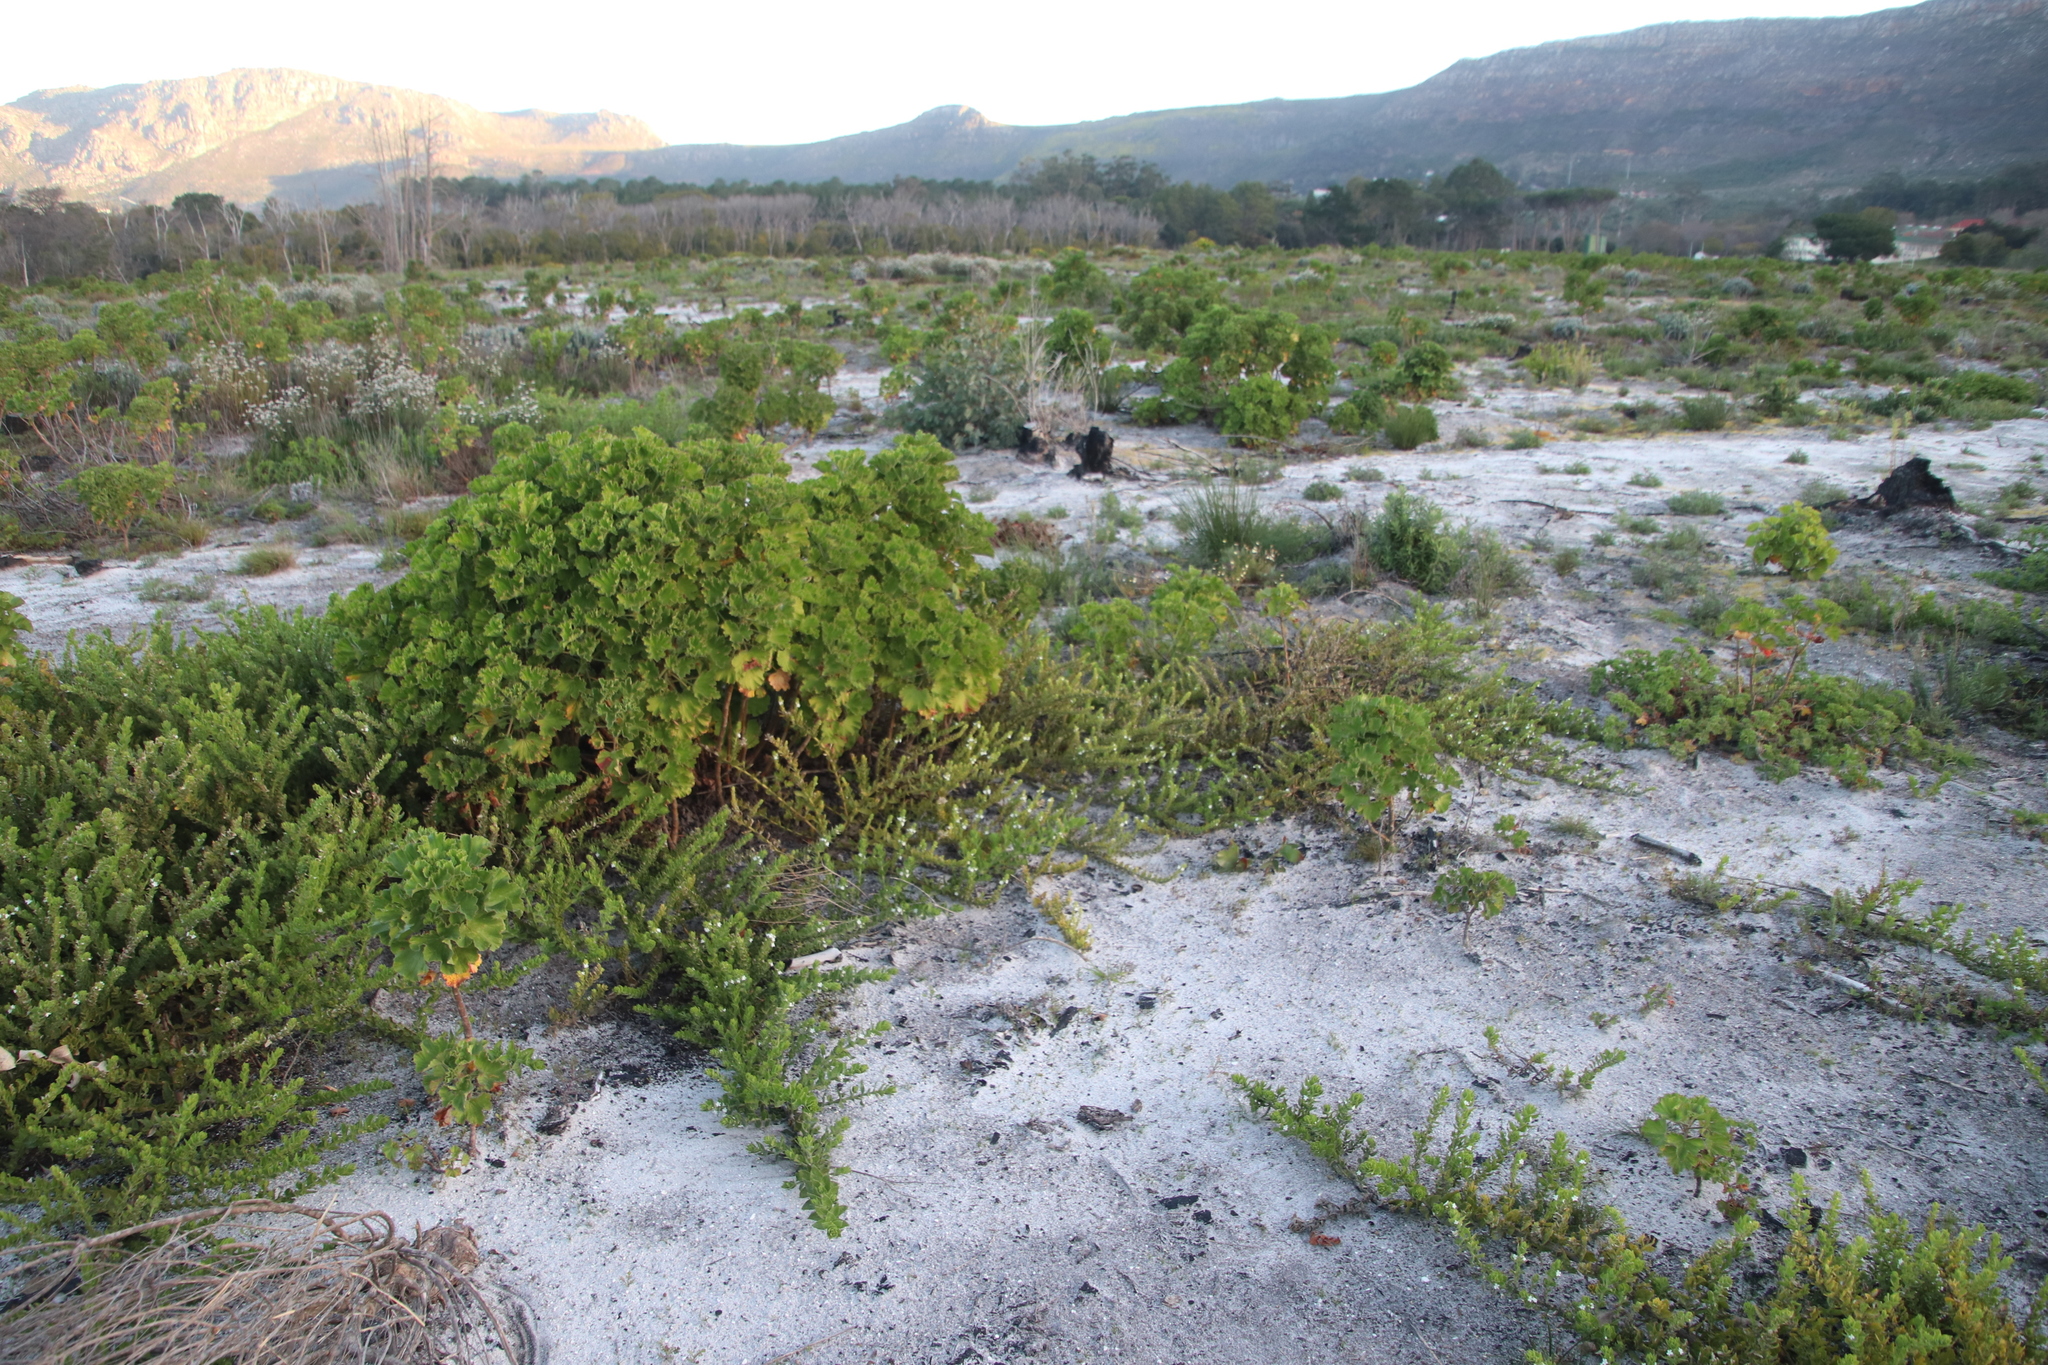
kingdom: Plantae
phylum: Tracheophyta
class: Magnoliopsida
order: Geraniales
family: Geraniaceae
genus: Pelargonium
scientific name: Pelargonium cucullatum
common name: Tree pelargonium
